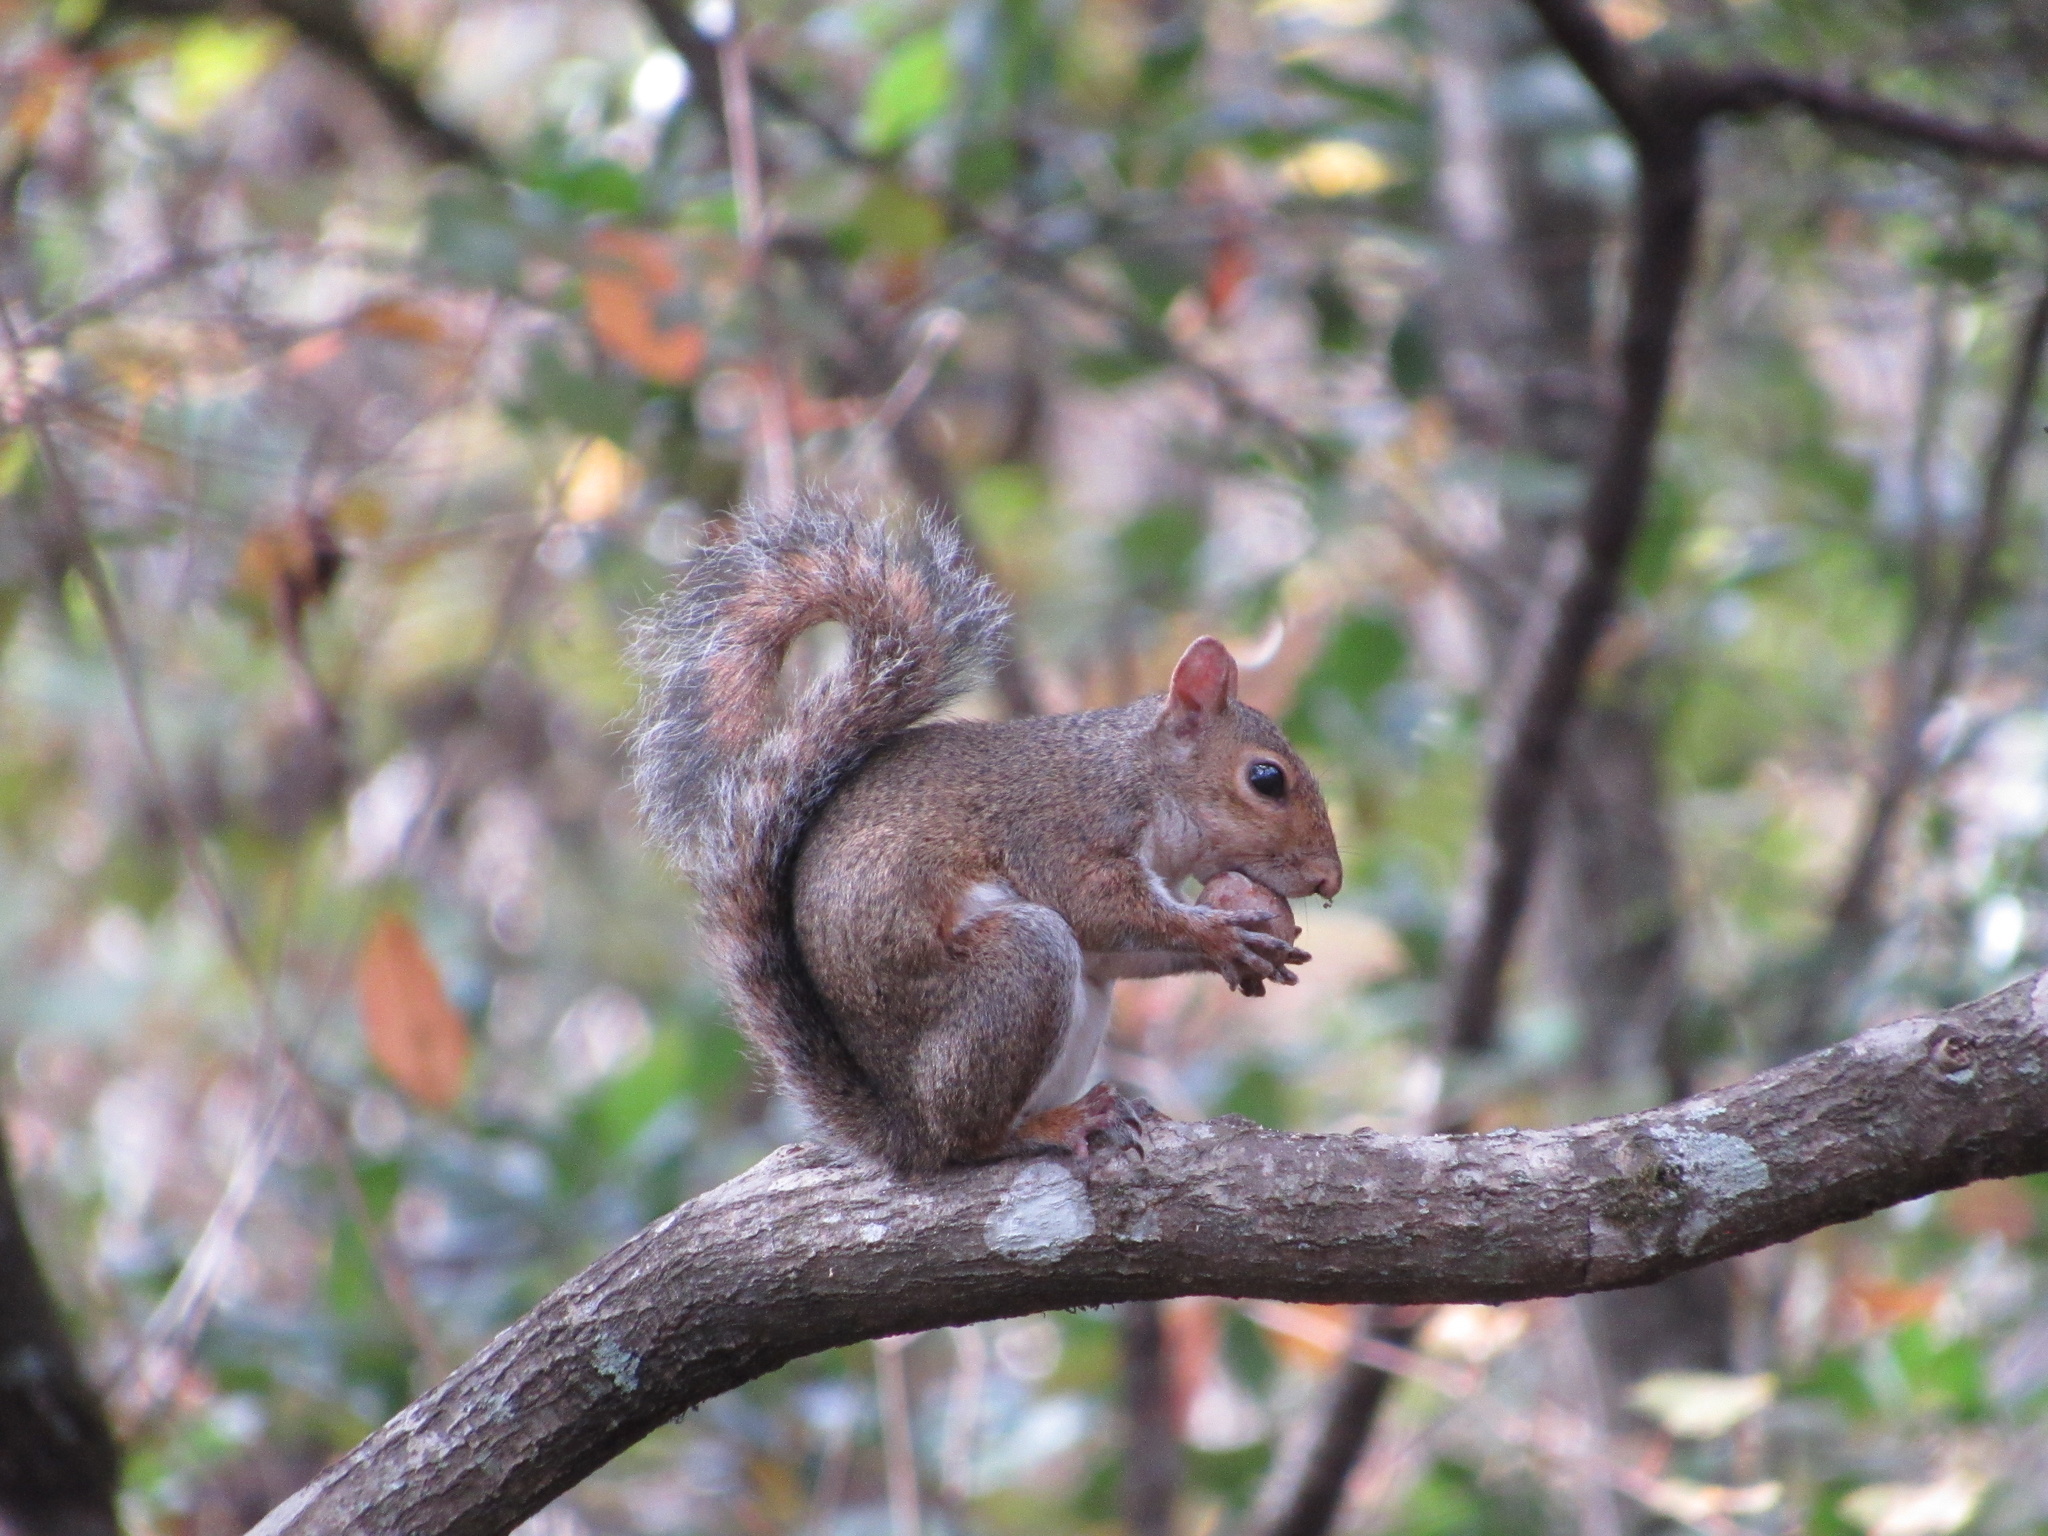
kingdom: Animalia
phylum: Chordata
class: Mammalia
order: Rodentia
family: Sciuridae
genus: Sciurus
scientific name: Sciurus carolinensis
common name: Eastern gray squirrel
